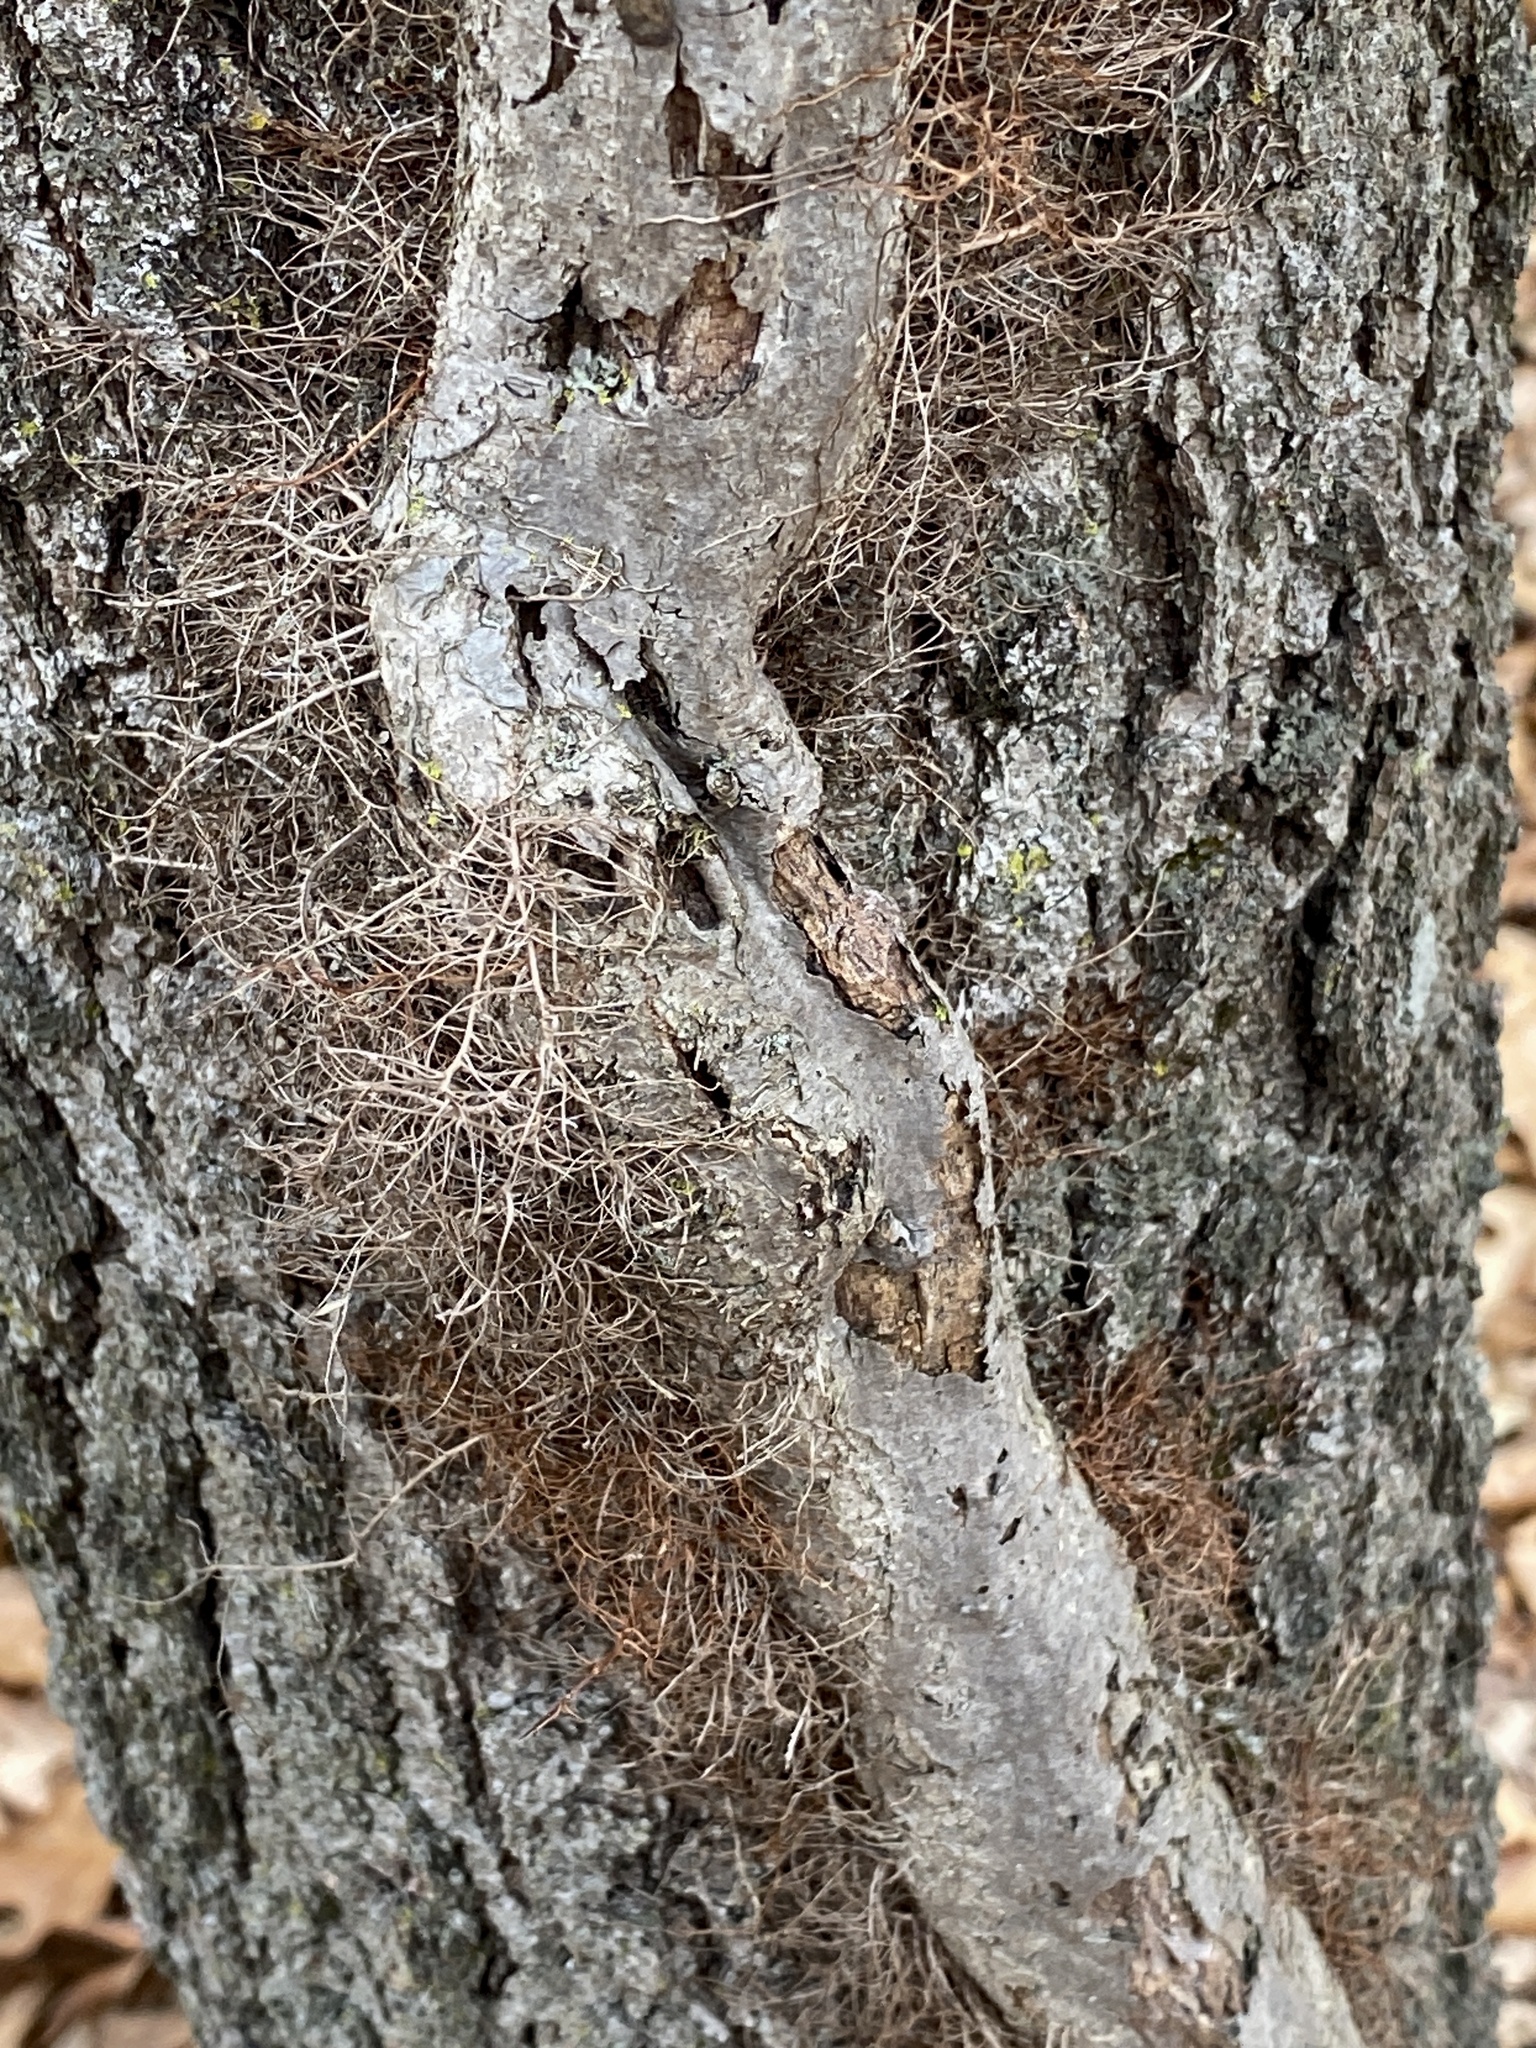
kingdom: Plantae
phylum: Tracheophyta
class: Magnoliopsida
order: Sapindales
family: Anacardiaceae
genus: Toxicodendron
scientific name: Toxicodendron radicans
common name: Poison ivy
